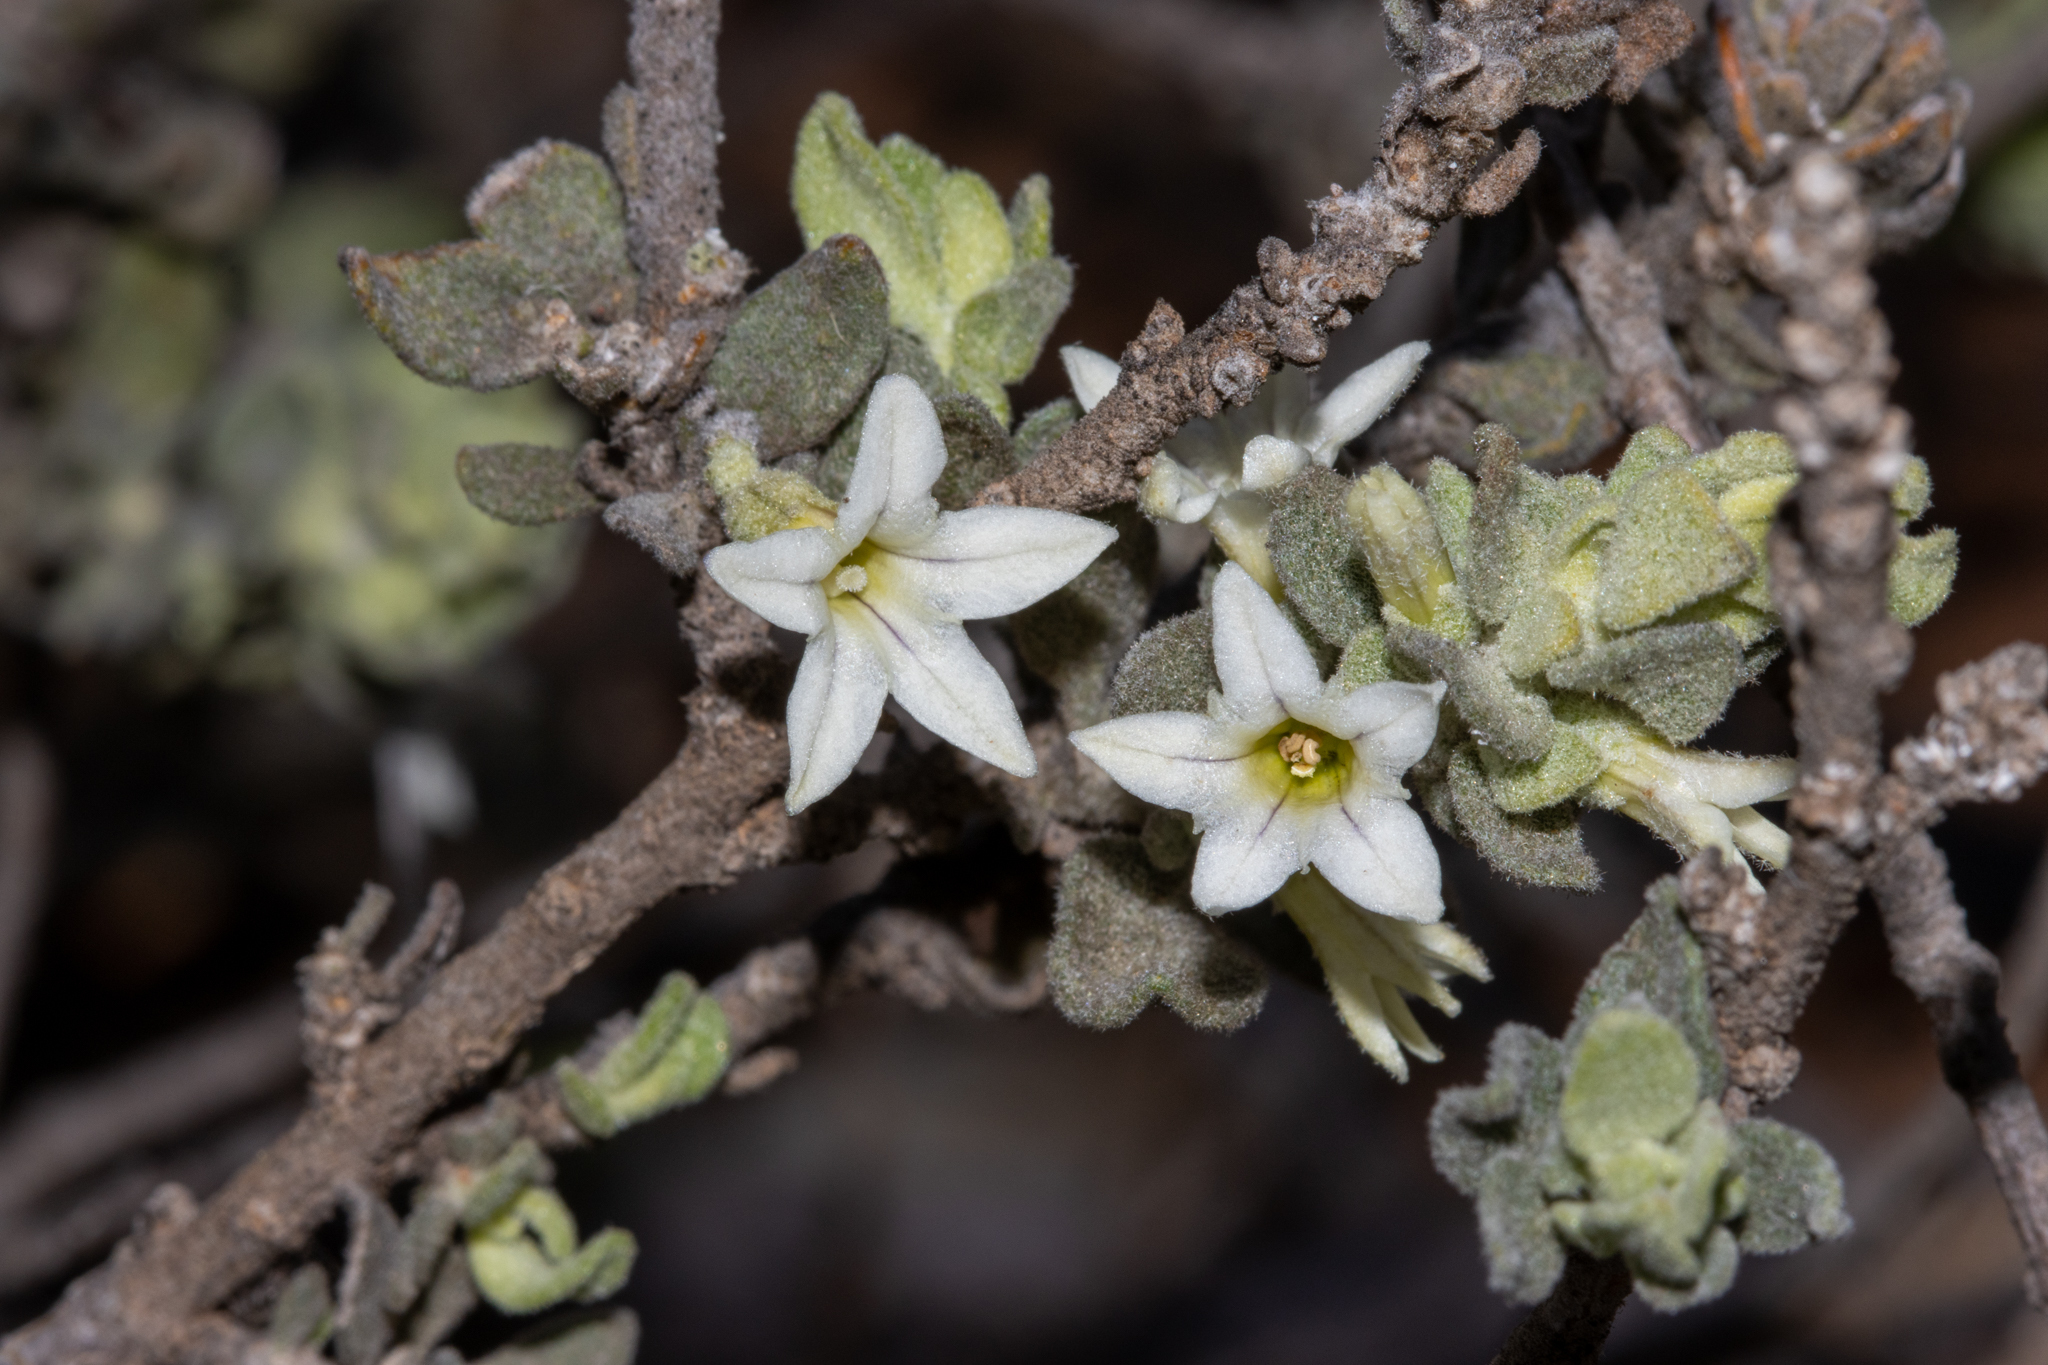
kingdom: Plantae
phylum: Tracheophyta
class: Magnoliopsida
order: Solanales
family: Solanaceae
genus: Grammosolen
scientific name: Grammosolen dixonii
